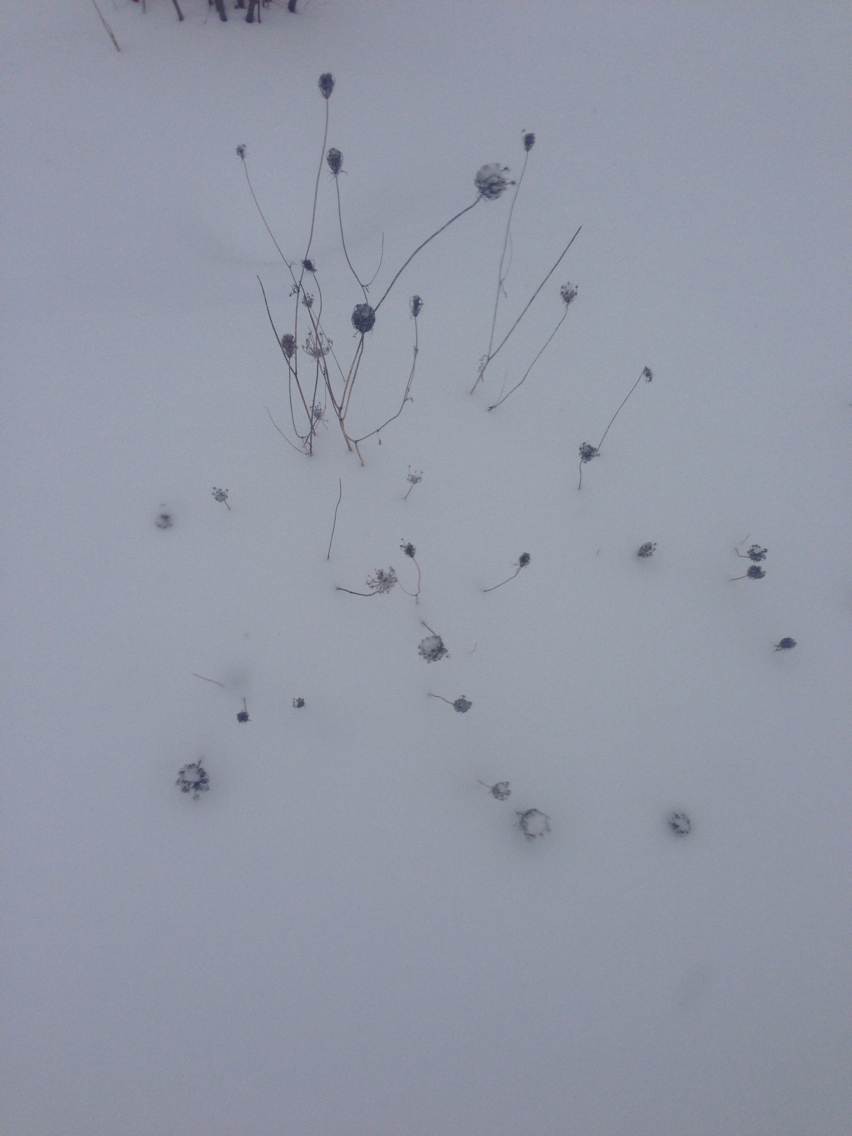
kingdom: Plantae
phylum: Tracheophyta
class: Magnoliopsida
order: Apiales
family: Apiaceae
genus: Daucus
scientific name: Daucus carota
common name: Wild carrot
